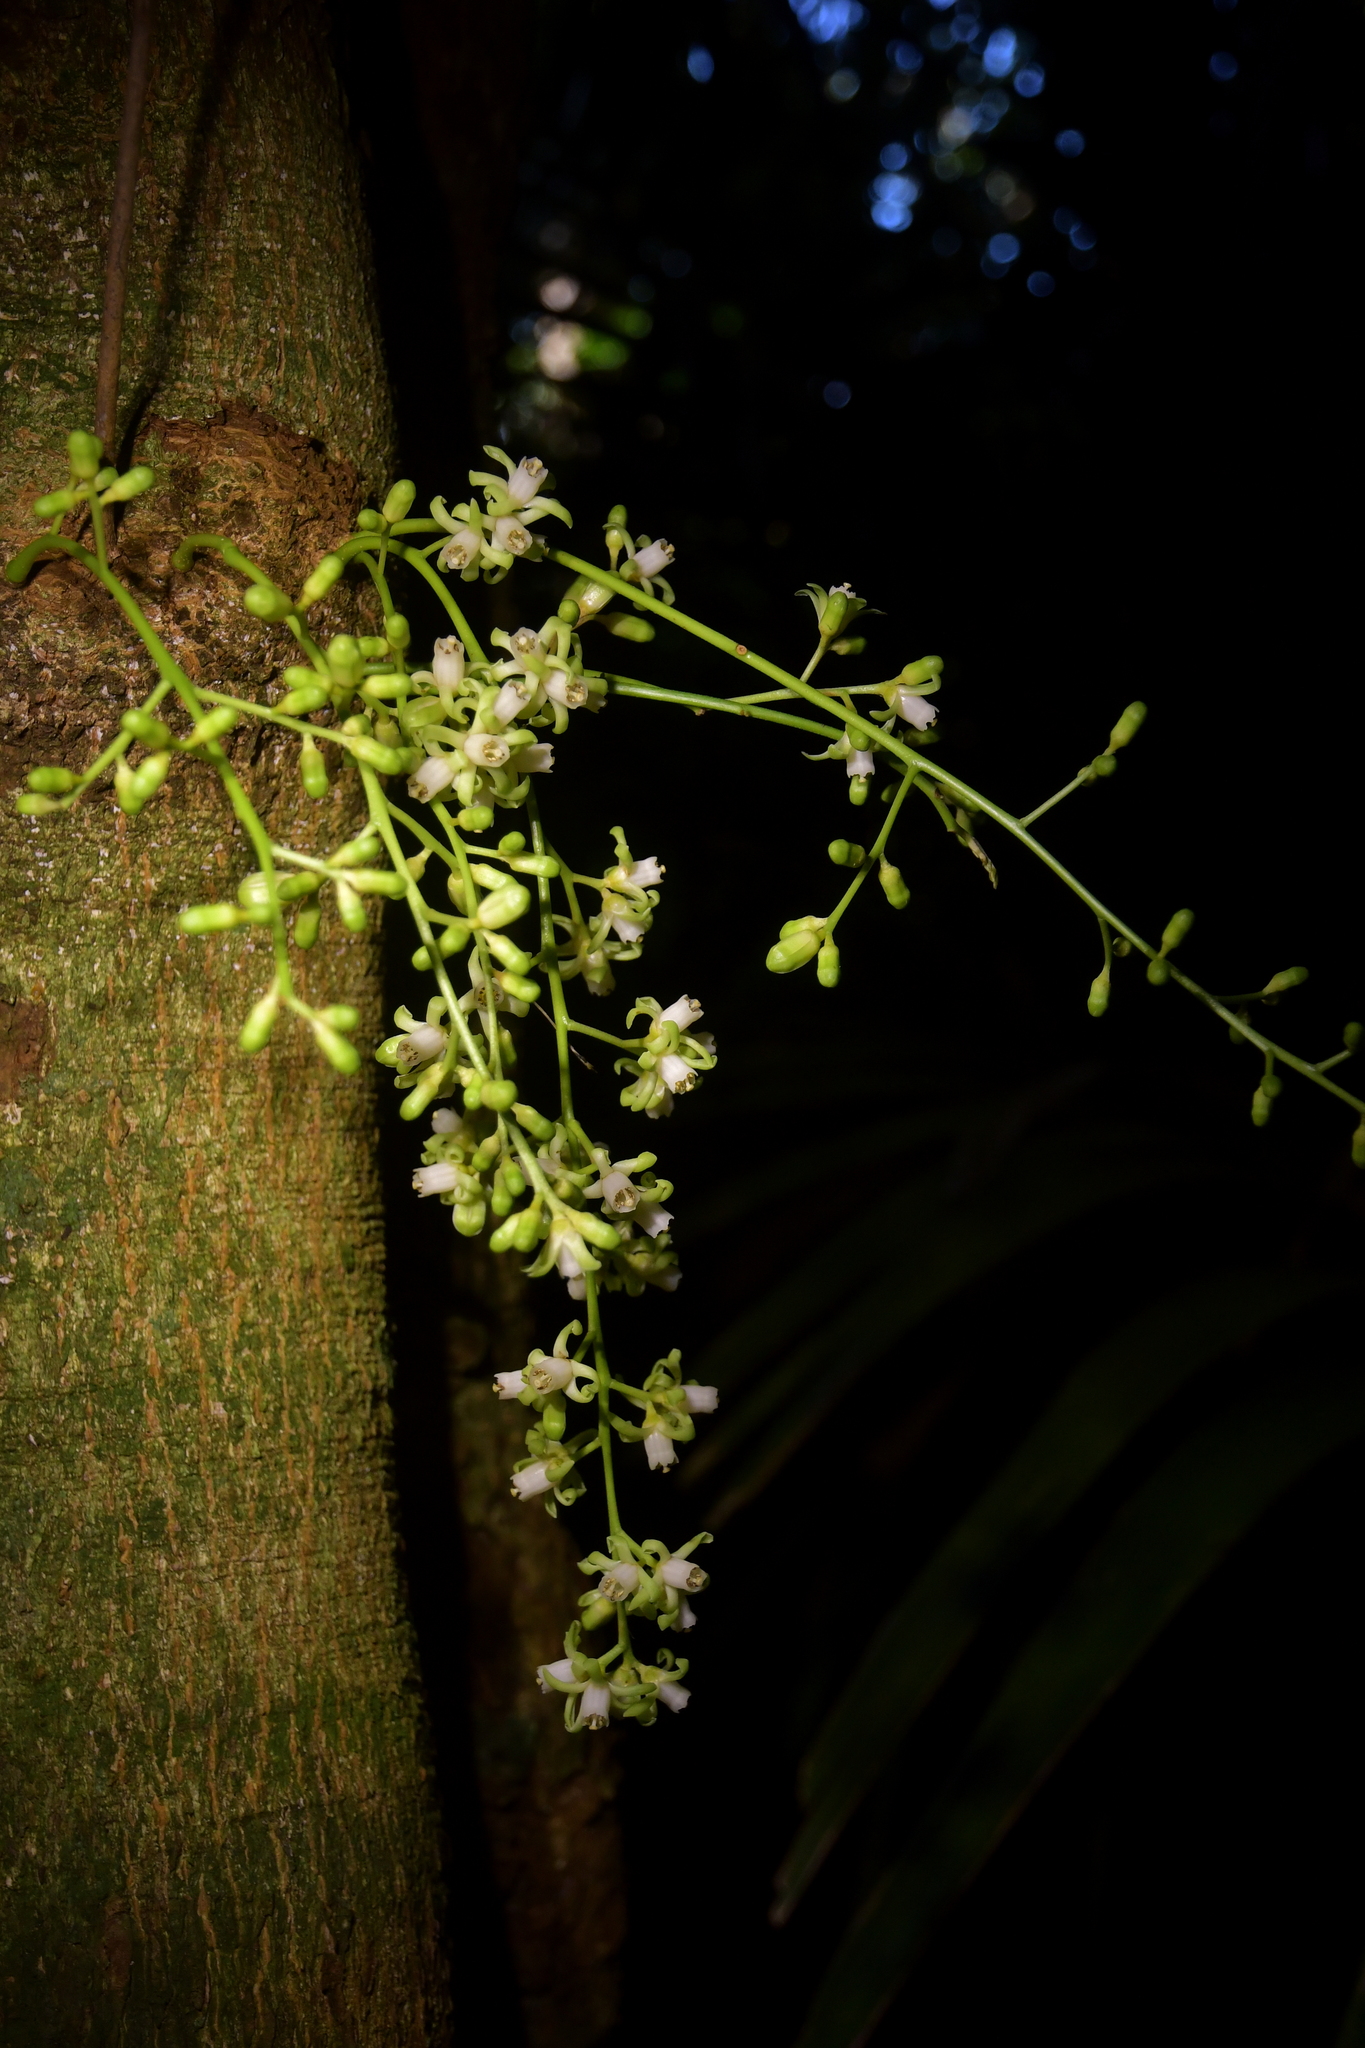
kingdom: Plantae
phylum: Tracheophyta
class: Magnoliopsida
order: Sapindales
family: Meliaceae
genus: Didymocheton
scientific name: Didymocheton spectabilis
